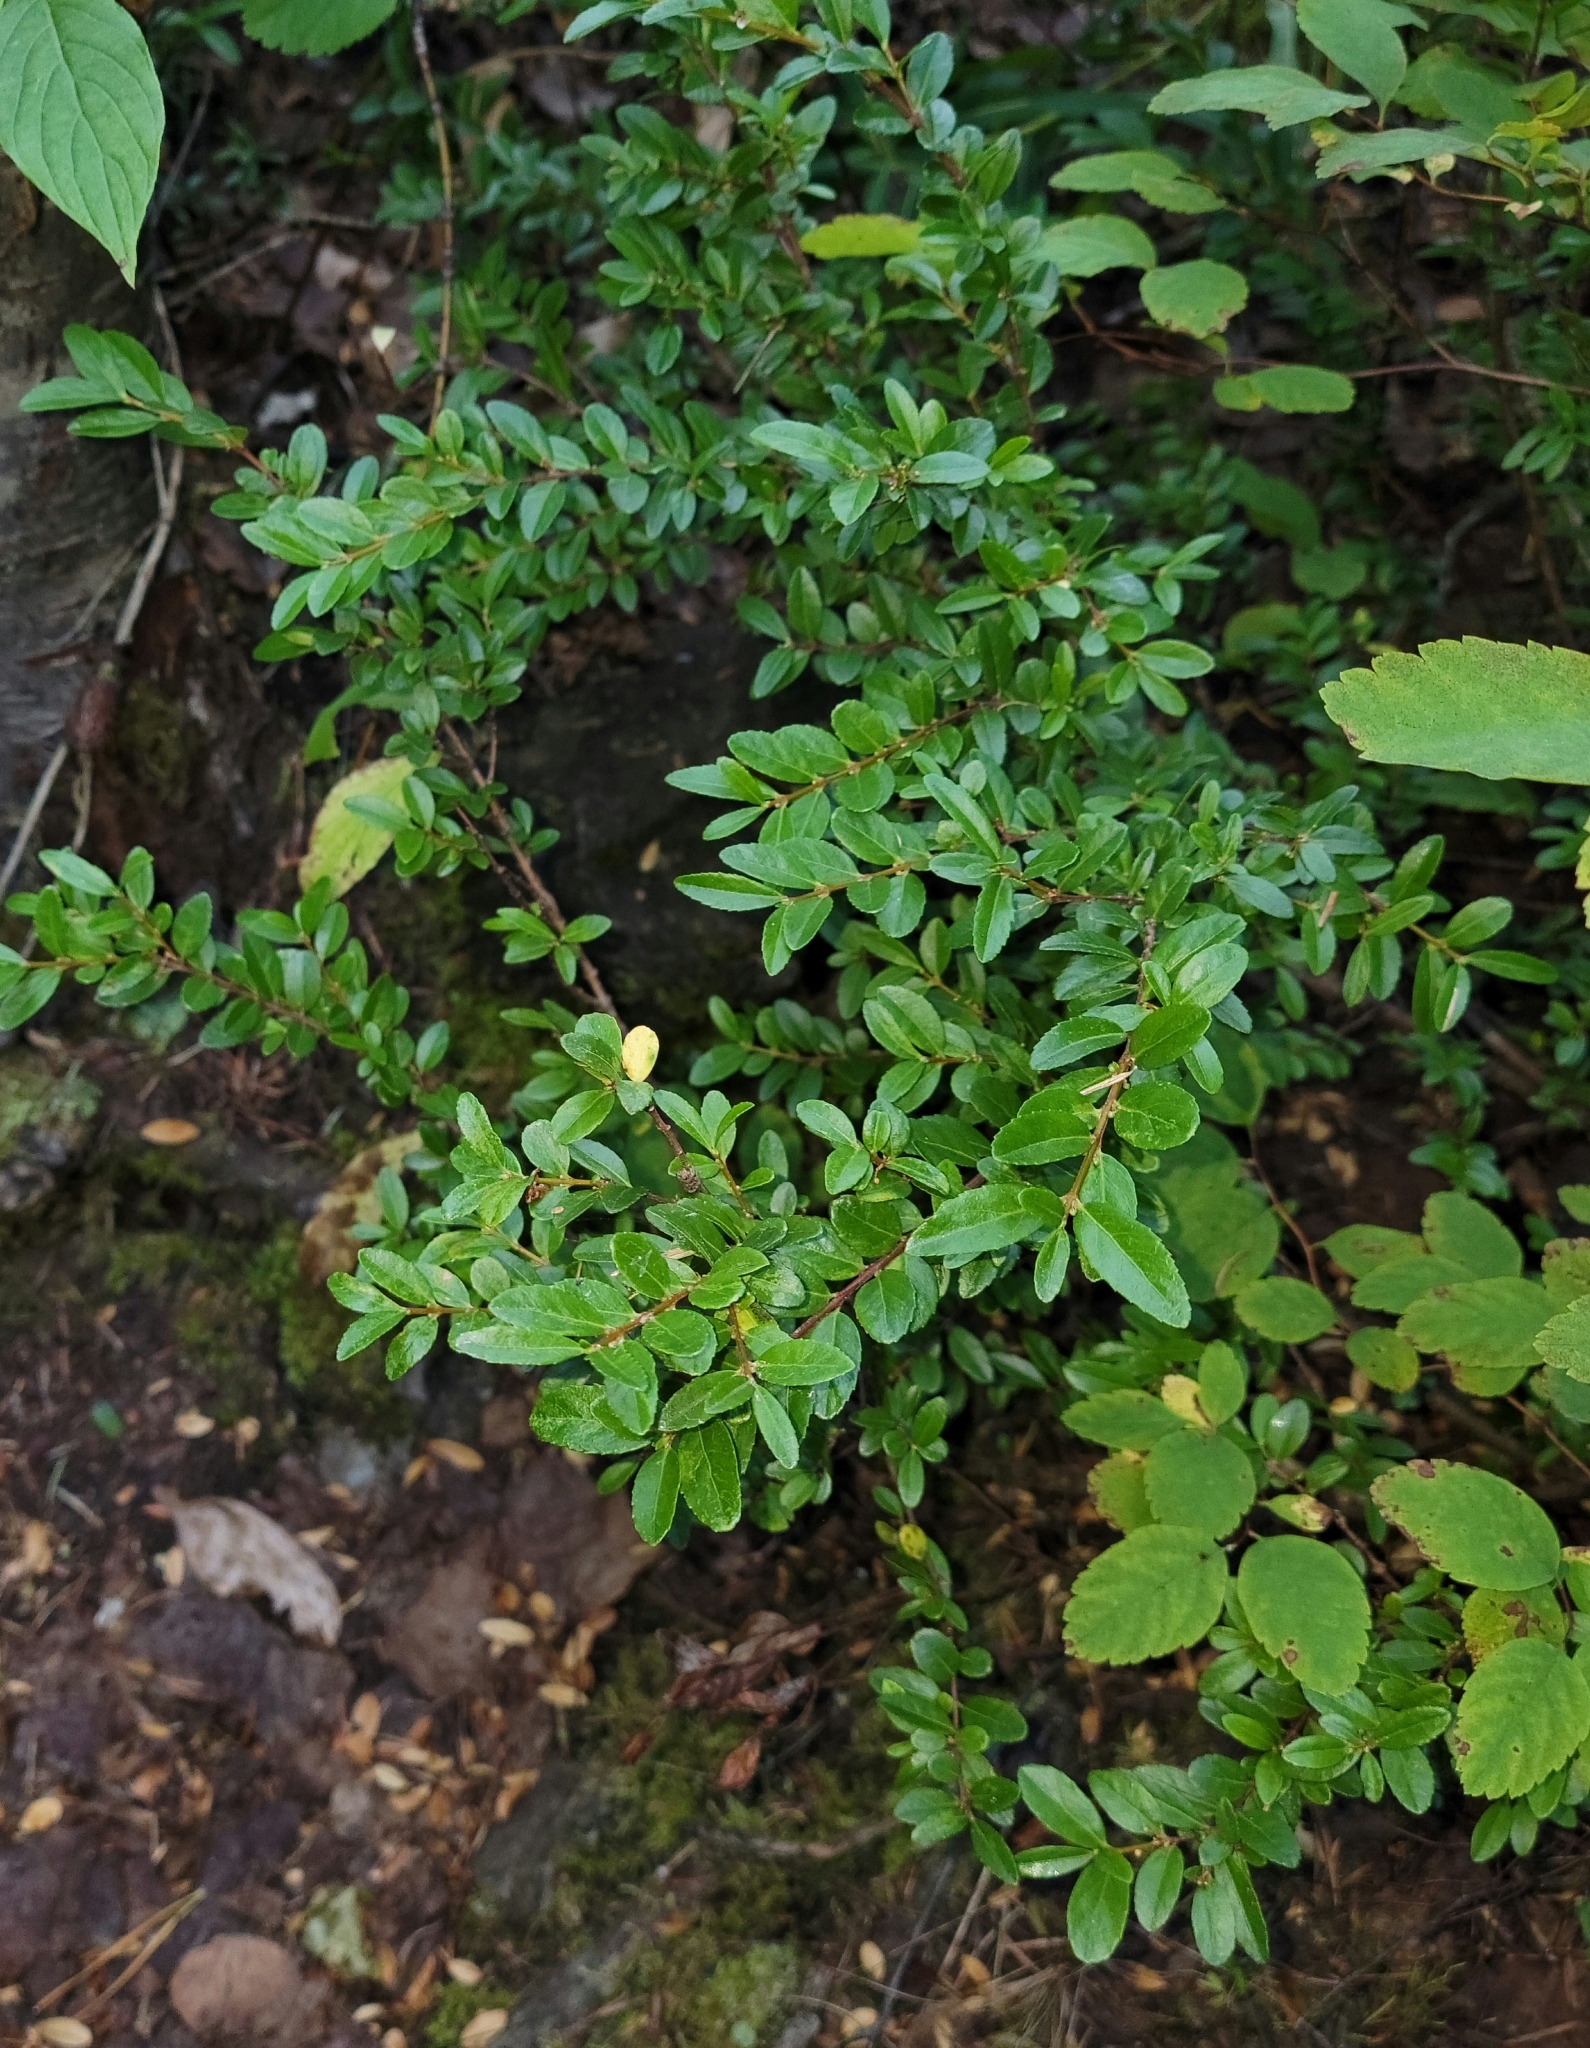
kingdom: Plantae
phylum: Tracheophyta
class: Magnoliopsida
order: Celastrales
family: Celastraceae
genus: Paxistima
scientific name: Paxistima myrsinites
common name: Mountain-lover
